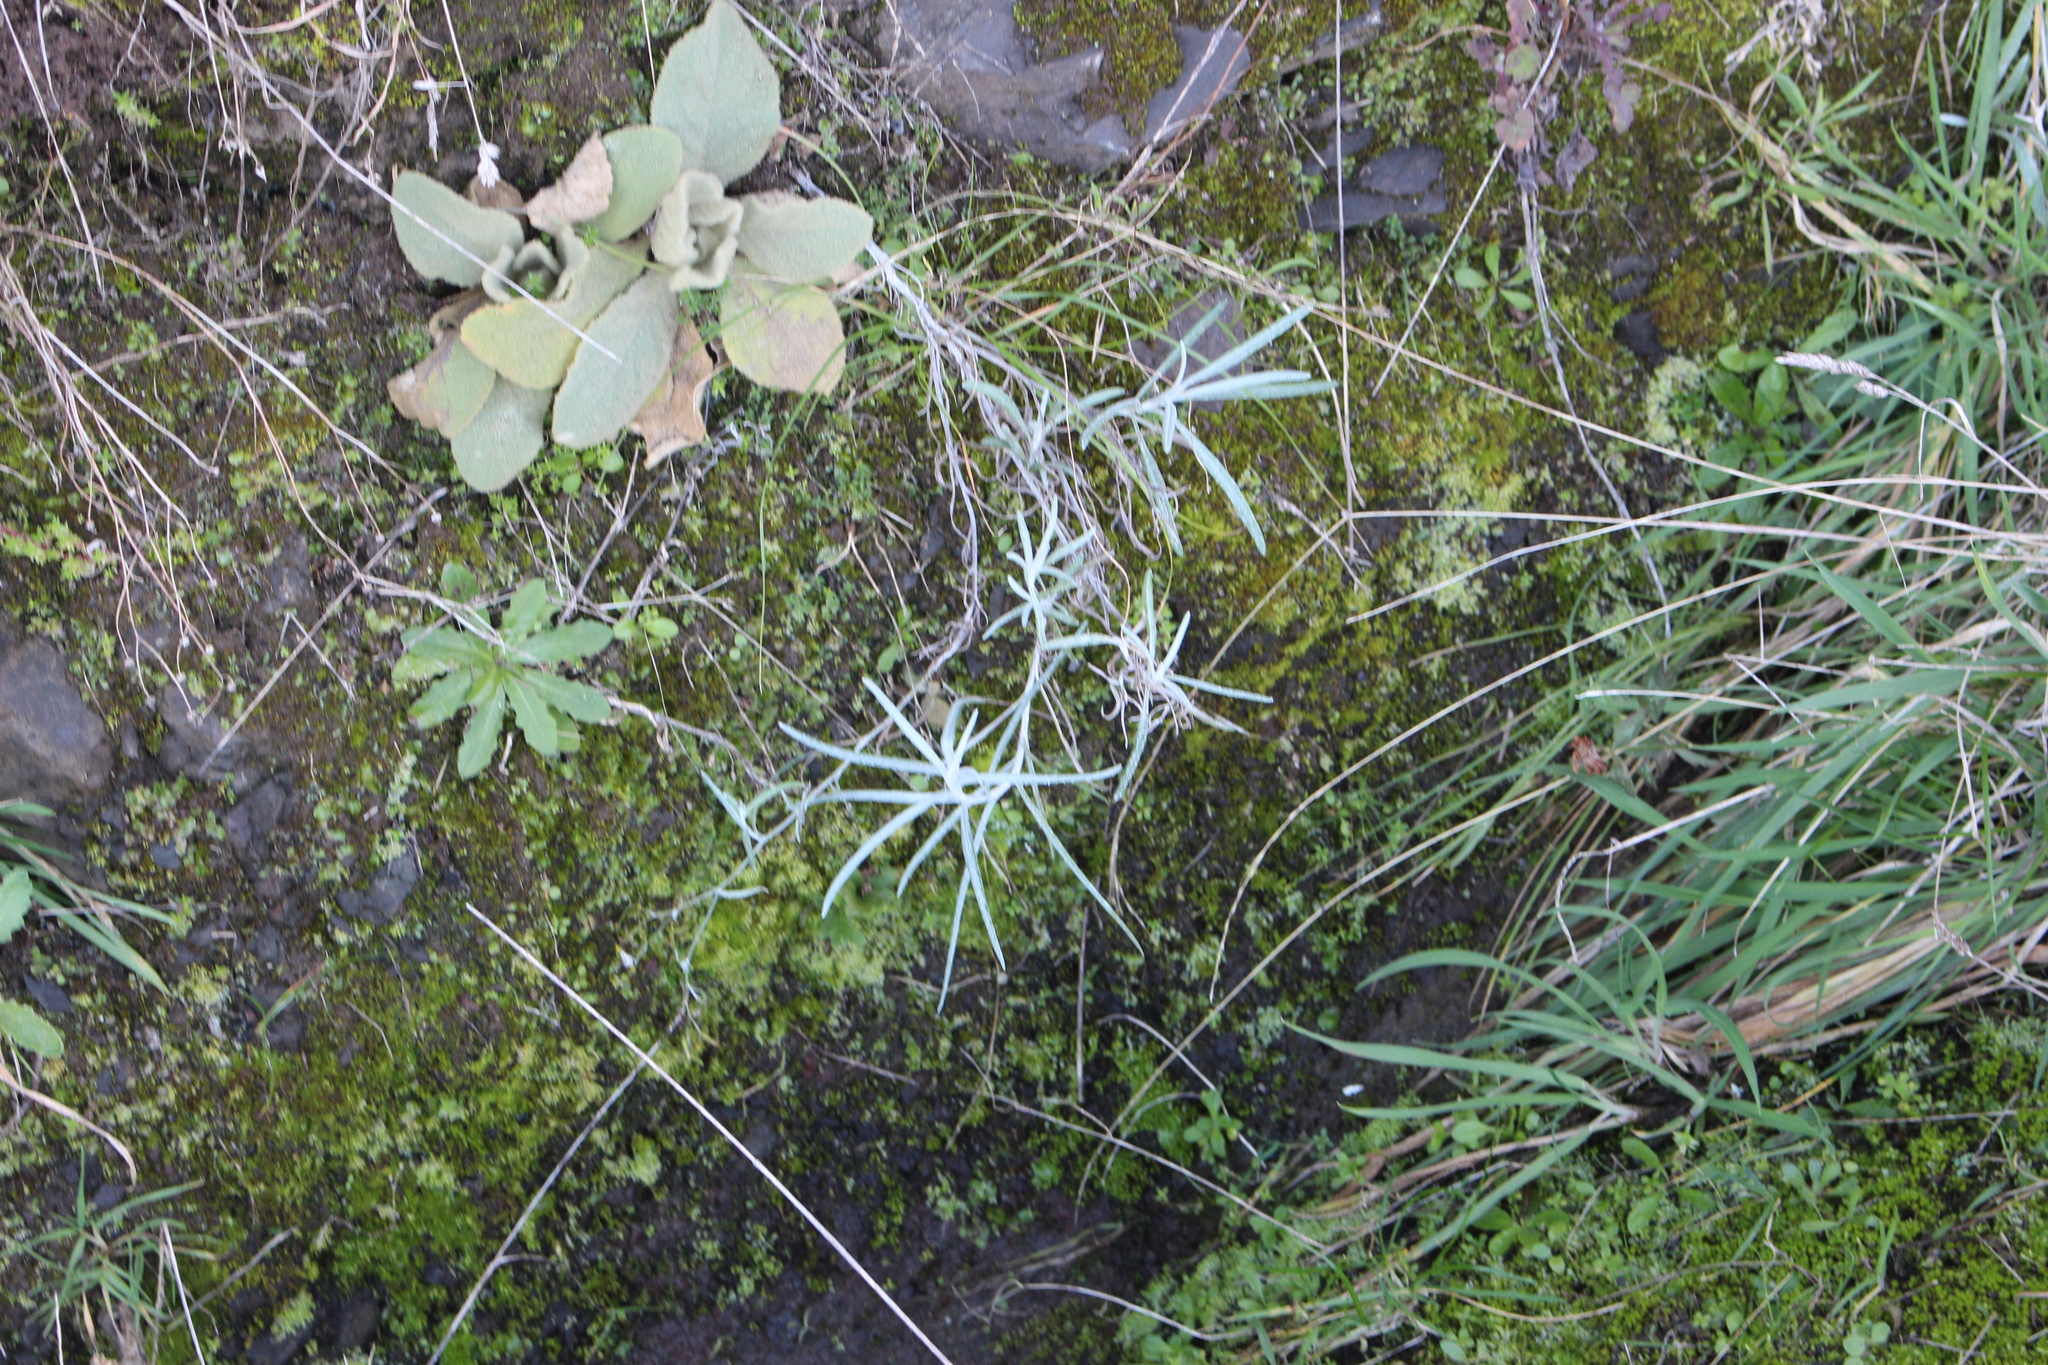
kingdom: Plantae
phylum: Tracheophyta
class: Magnoliopsida
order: Asterales
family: Asteraceae
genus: Senecio
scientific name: Senecio quadridentatus
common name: Cotton fireweed
